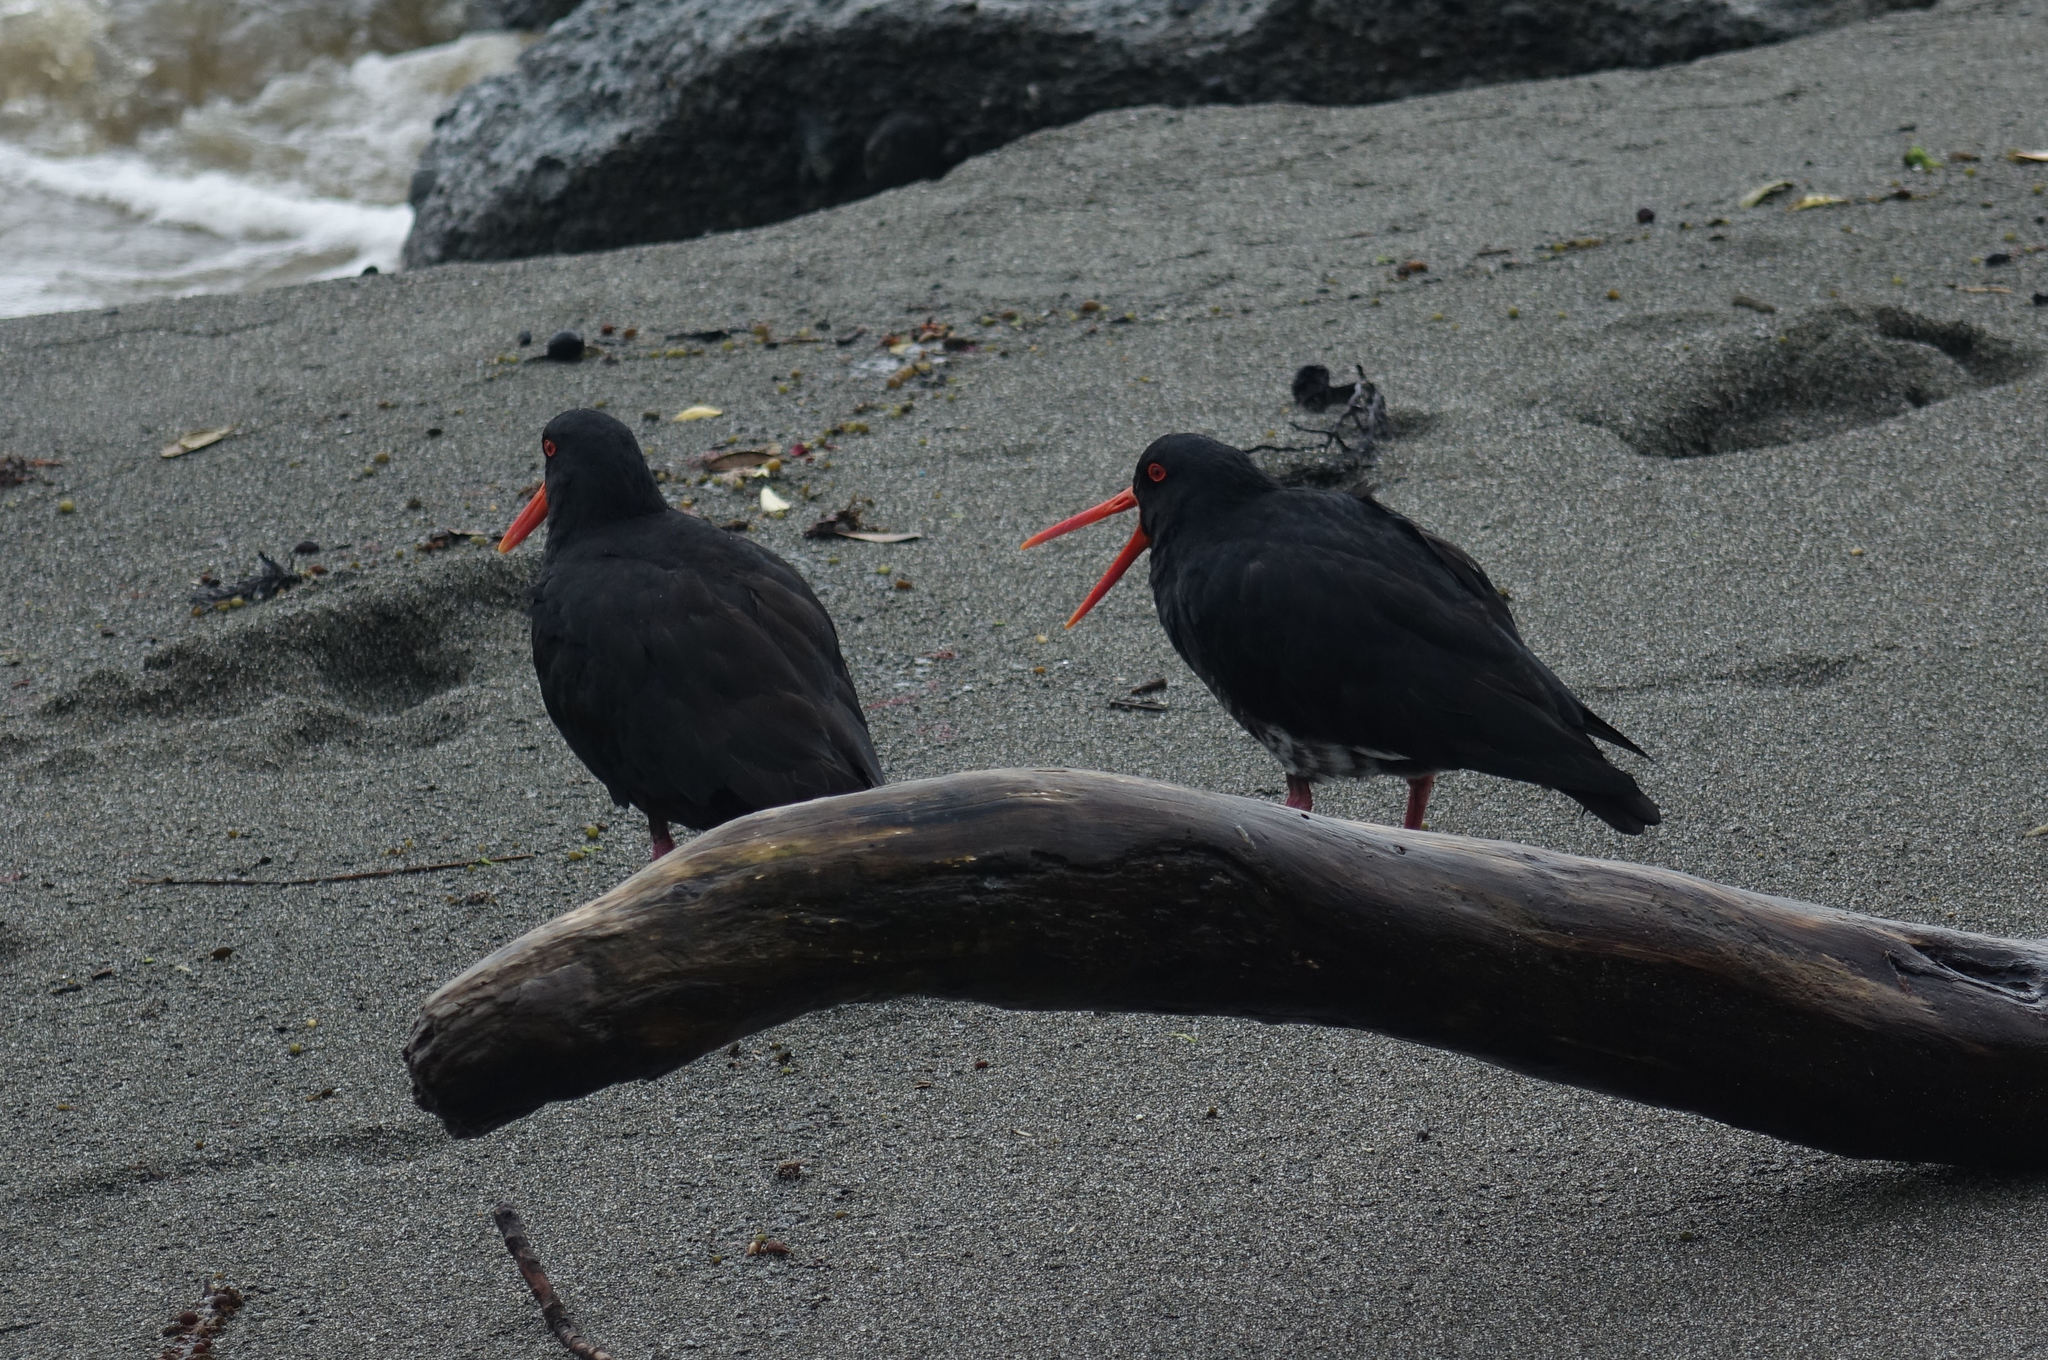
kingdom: Animalia
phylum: Chordata
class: Aves
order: Charadriiformes
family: Haematopodidae
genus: Haematopus
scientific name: Haematopus unicolor
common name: Variable oystercatcher
